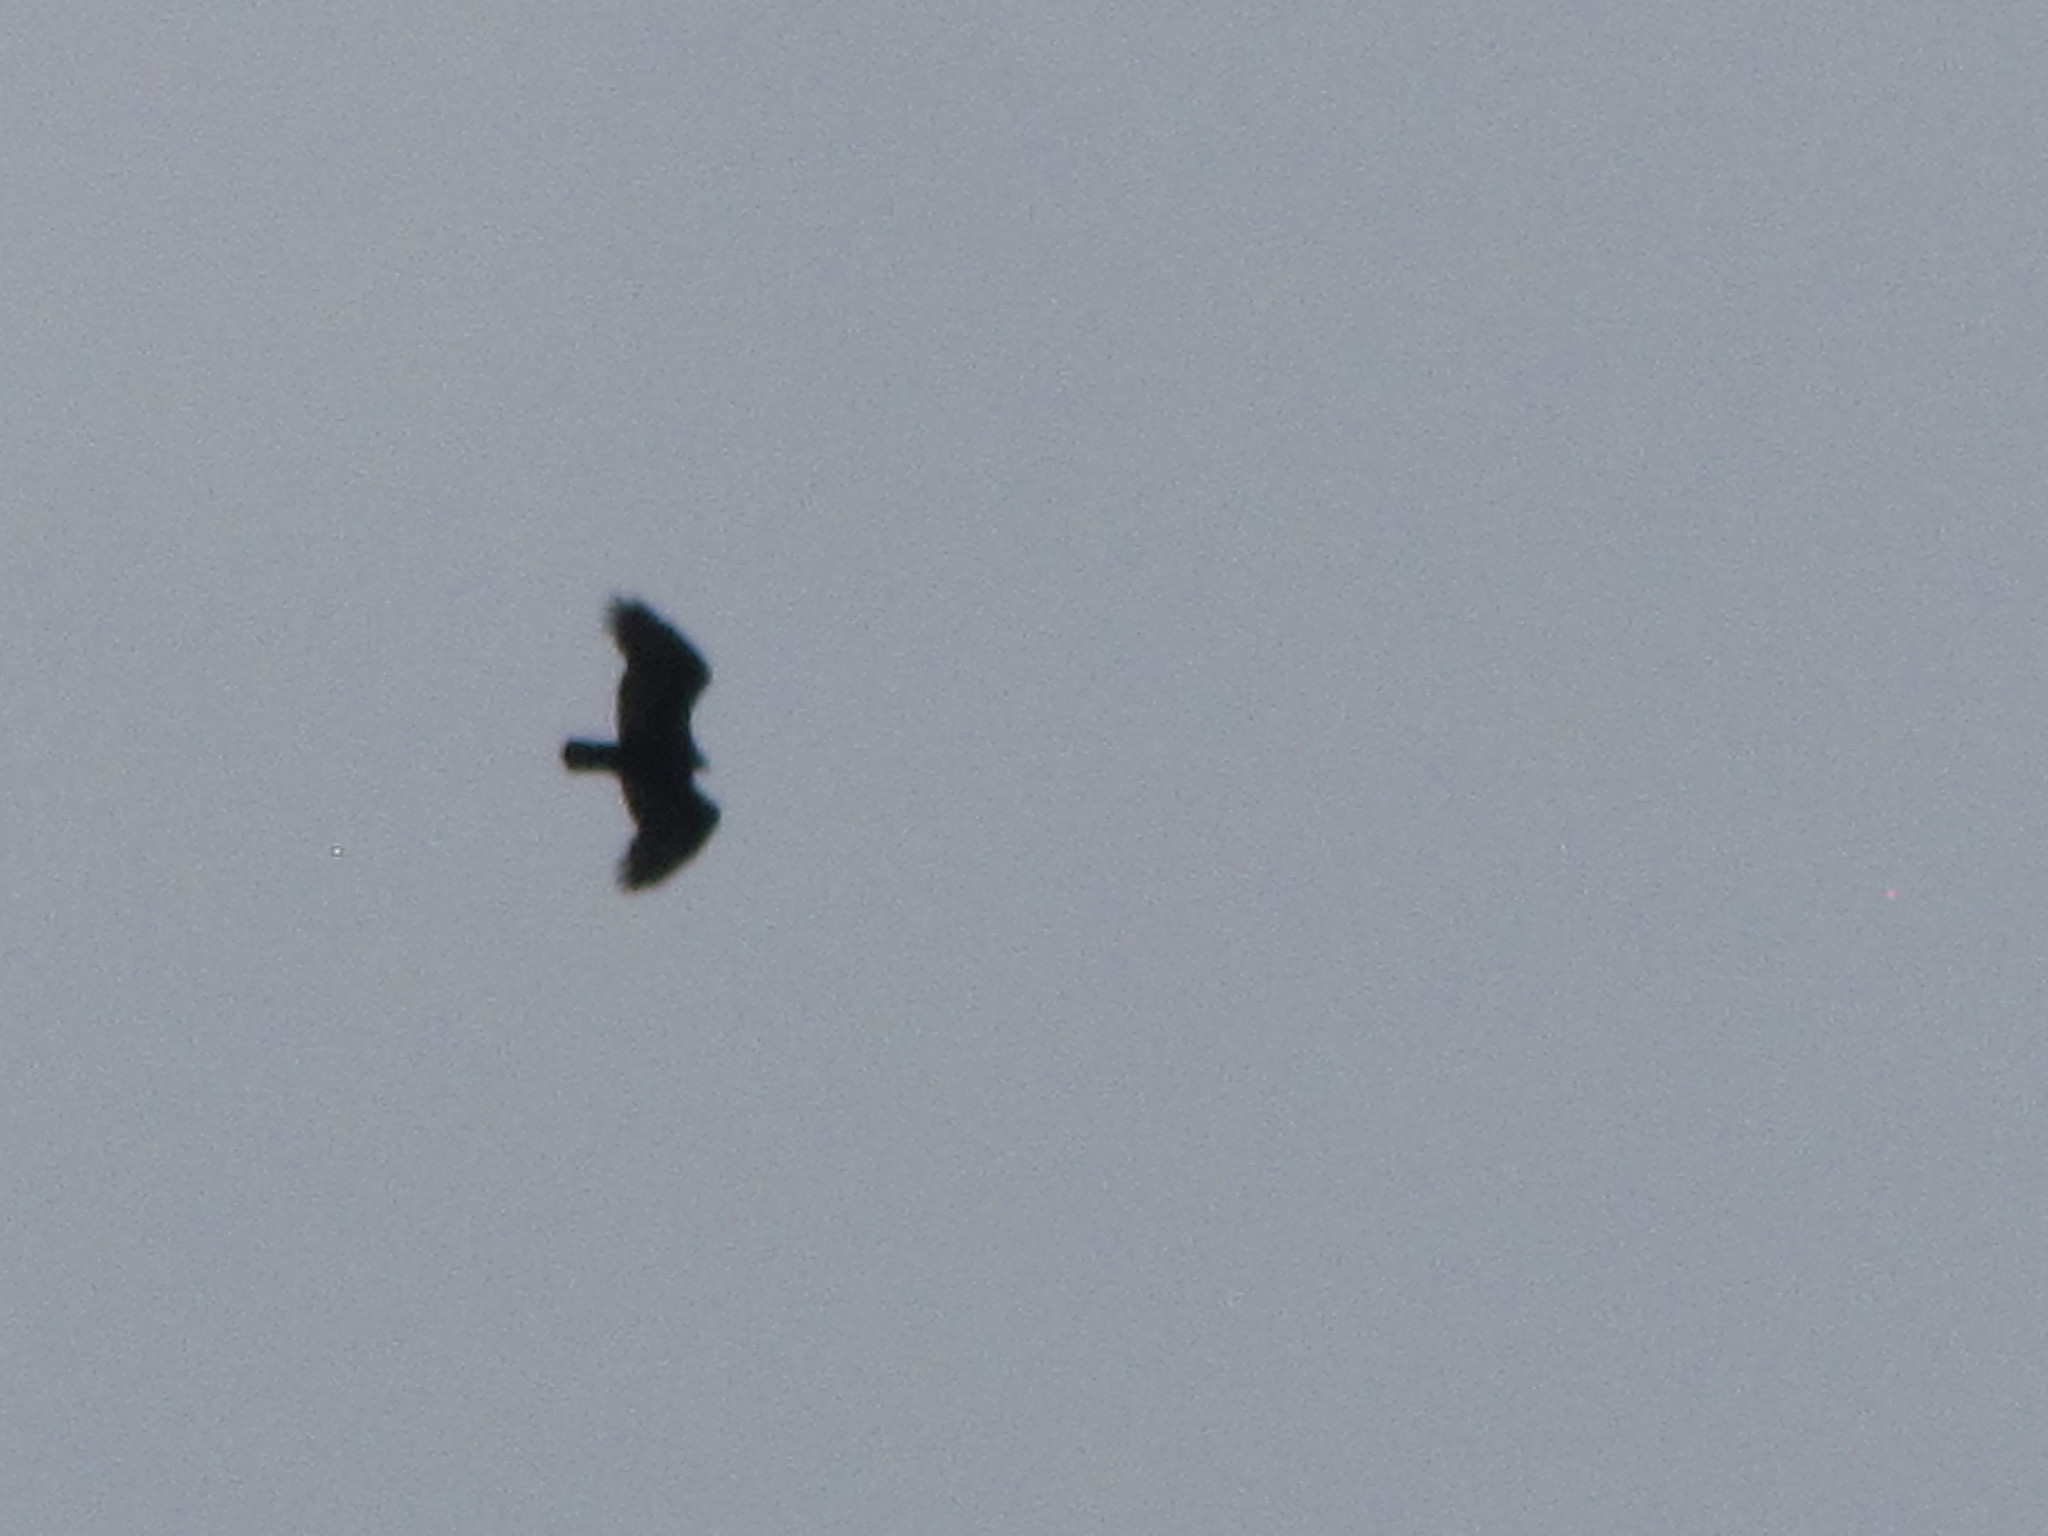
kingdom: Animalia
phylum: Chordata
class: Aves
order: Accipitriformes
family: Cathartidae
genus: Cathartes
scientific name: Cathartes aura
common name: Turkey vulture
